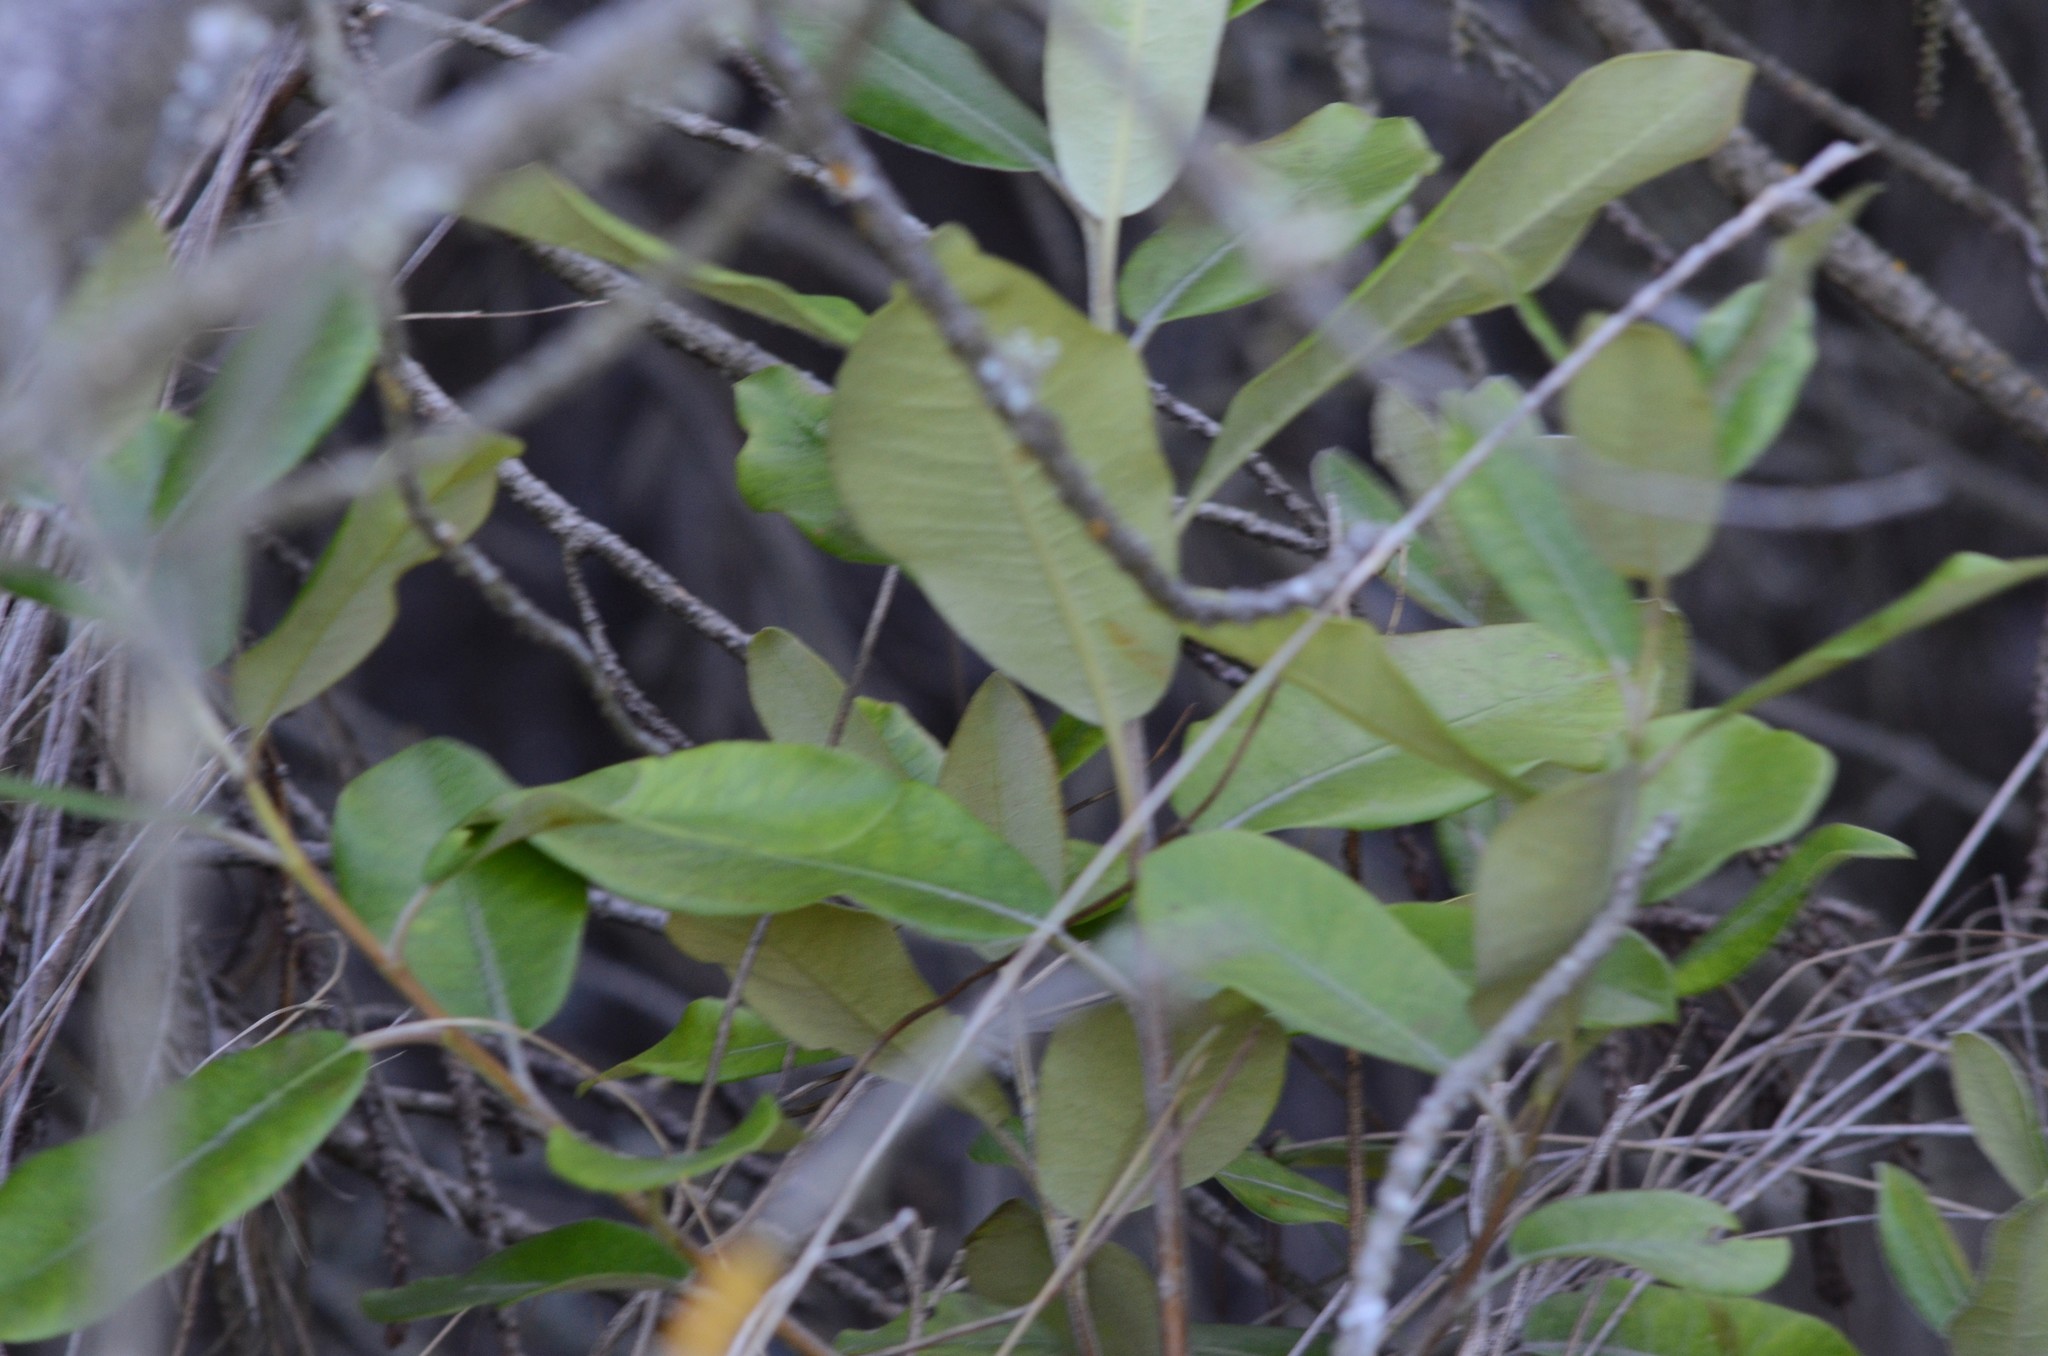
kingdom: Plantae
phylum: Tracheophyta
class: Magnoliopsida
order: Apiales
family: Pittosporaceae
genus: Pittosporum
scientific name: Pittosporum ralphii
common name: Ralph's desertwillow
